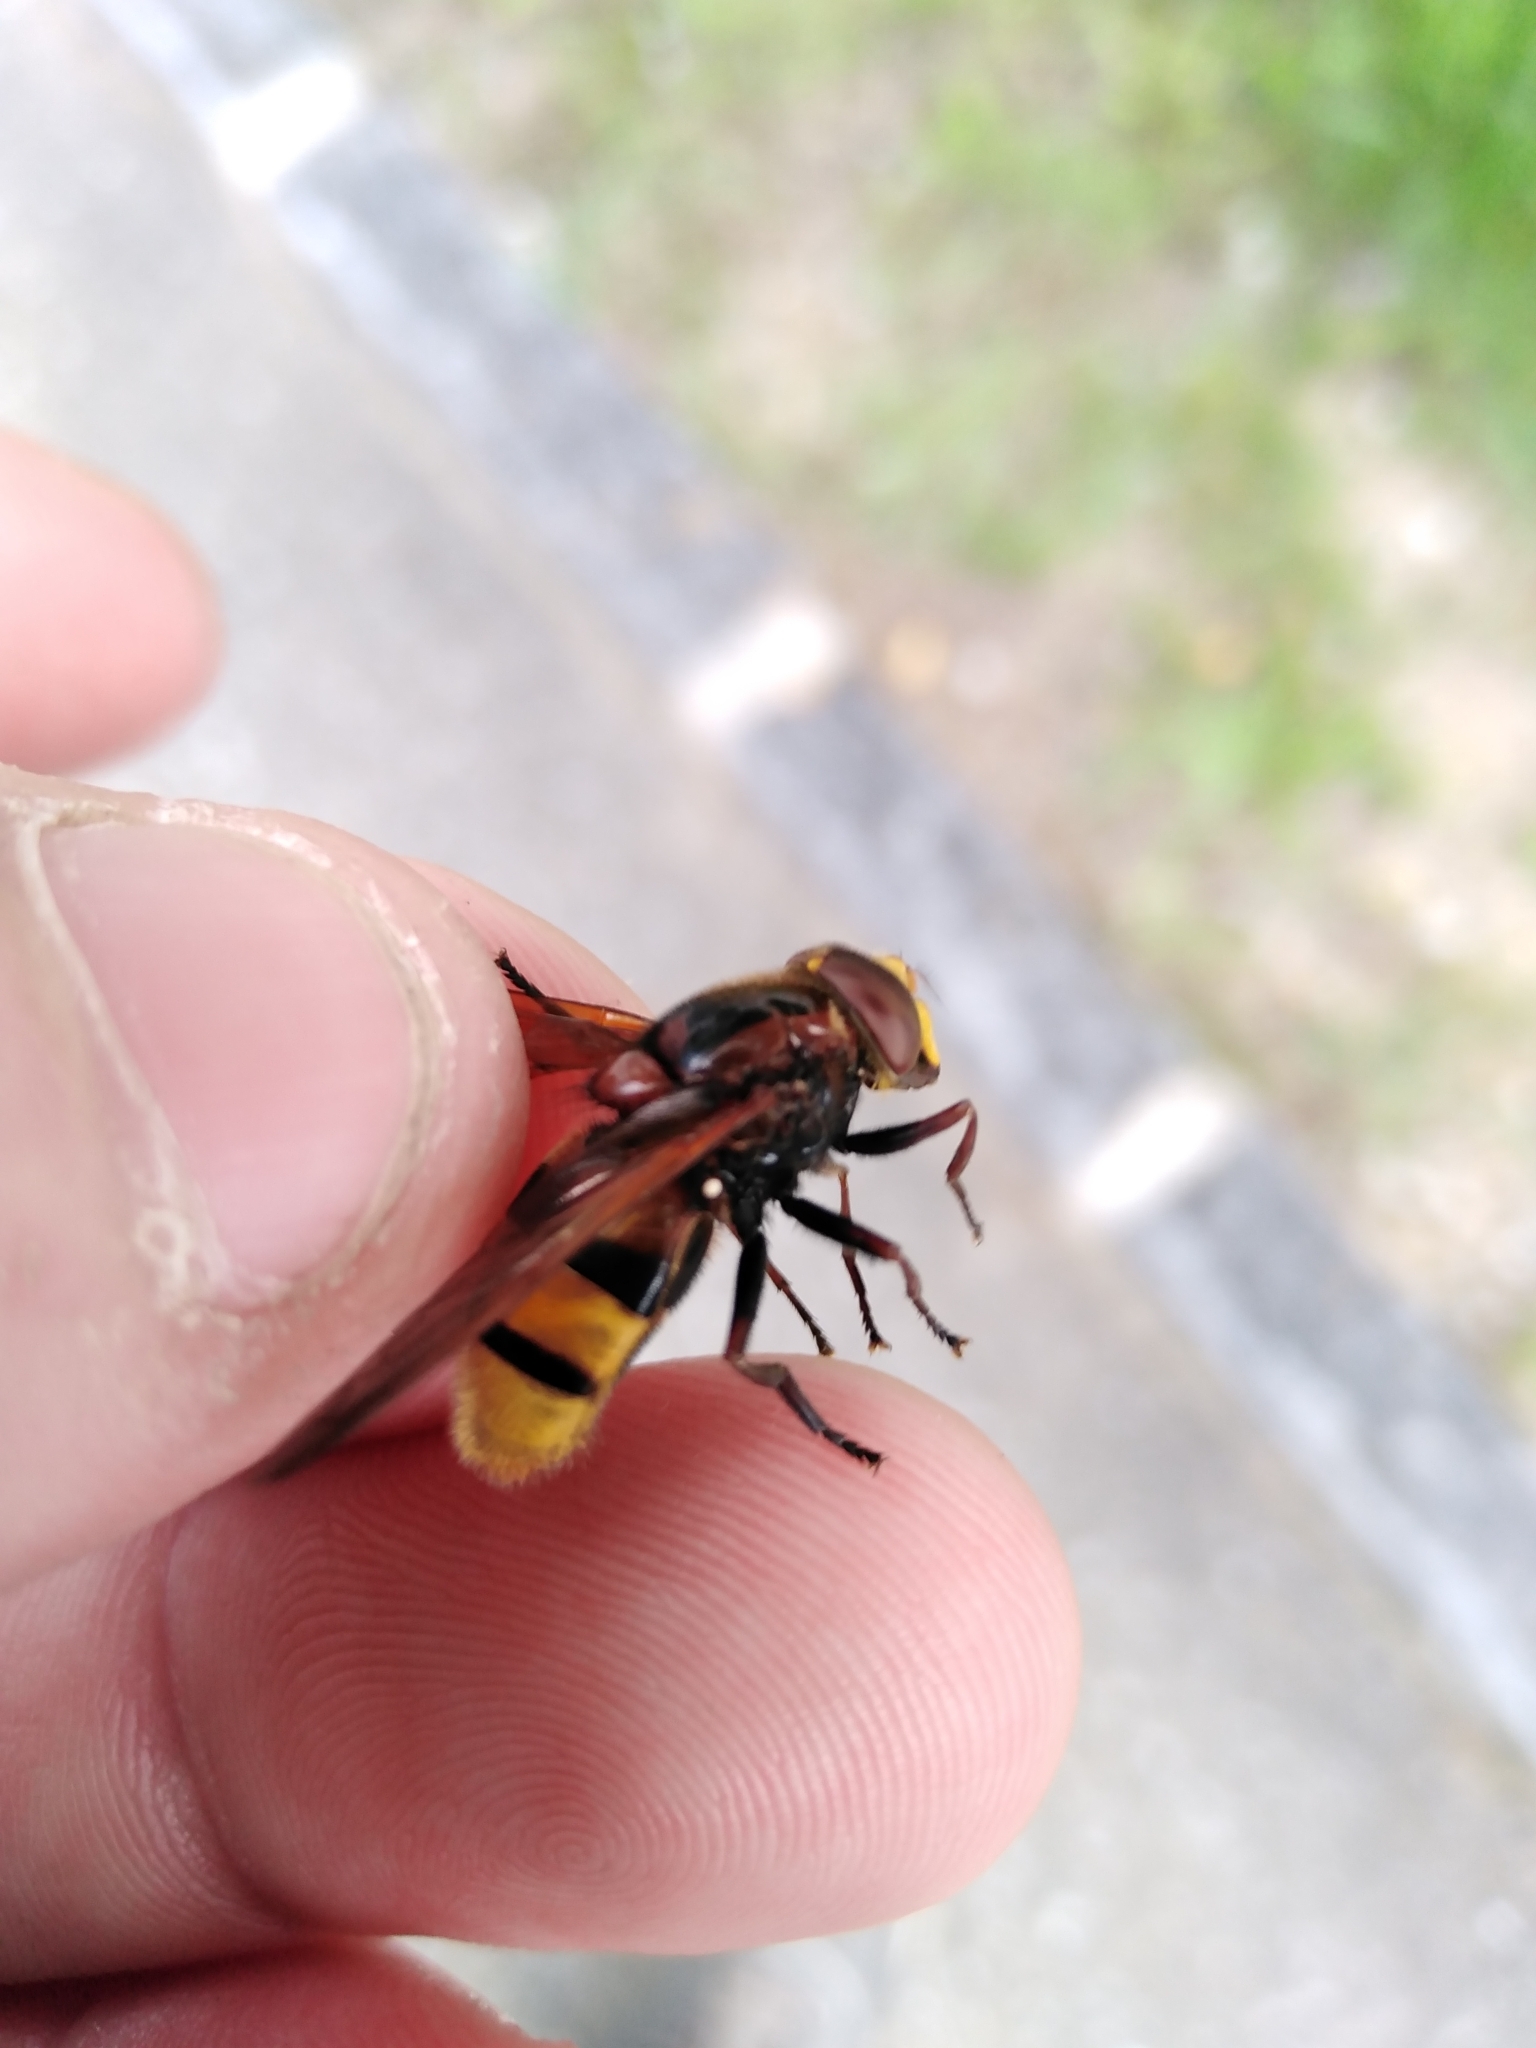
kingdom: Animalia
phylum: Arthropoda
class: Insecta
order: Diptera
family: Syrphidae
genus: Volucella
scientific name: Volucella zonaria
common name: Hornet hoverfly
